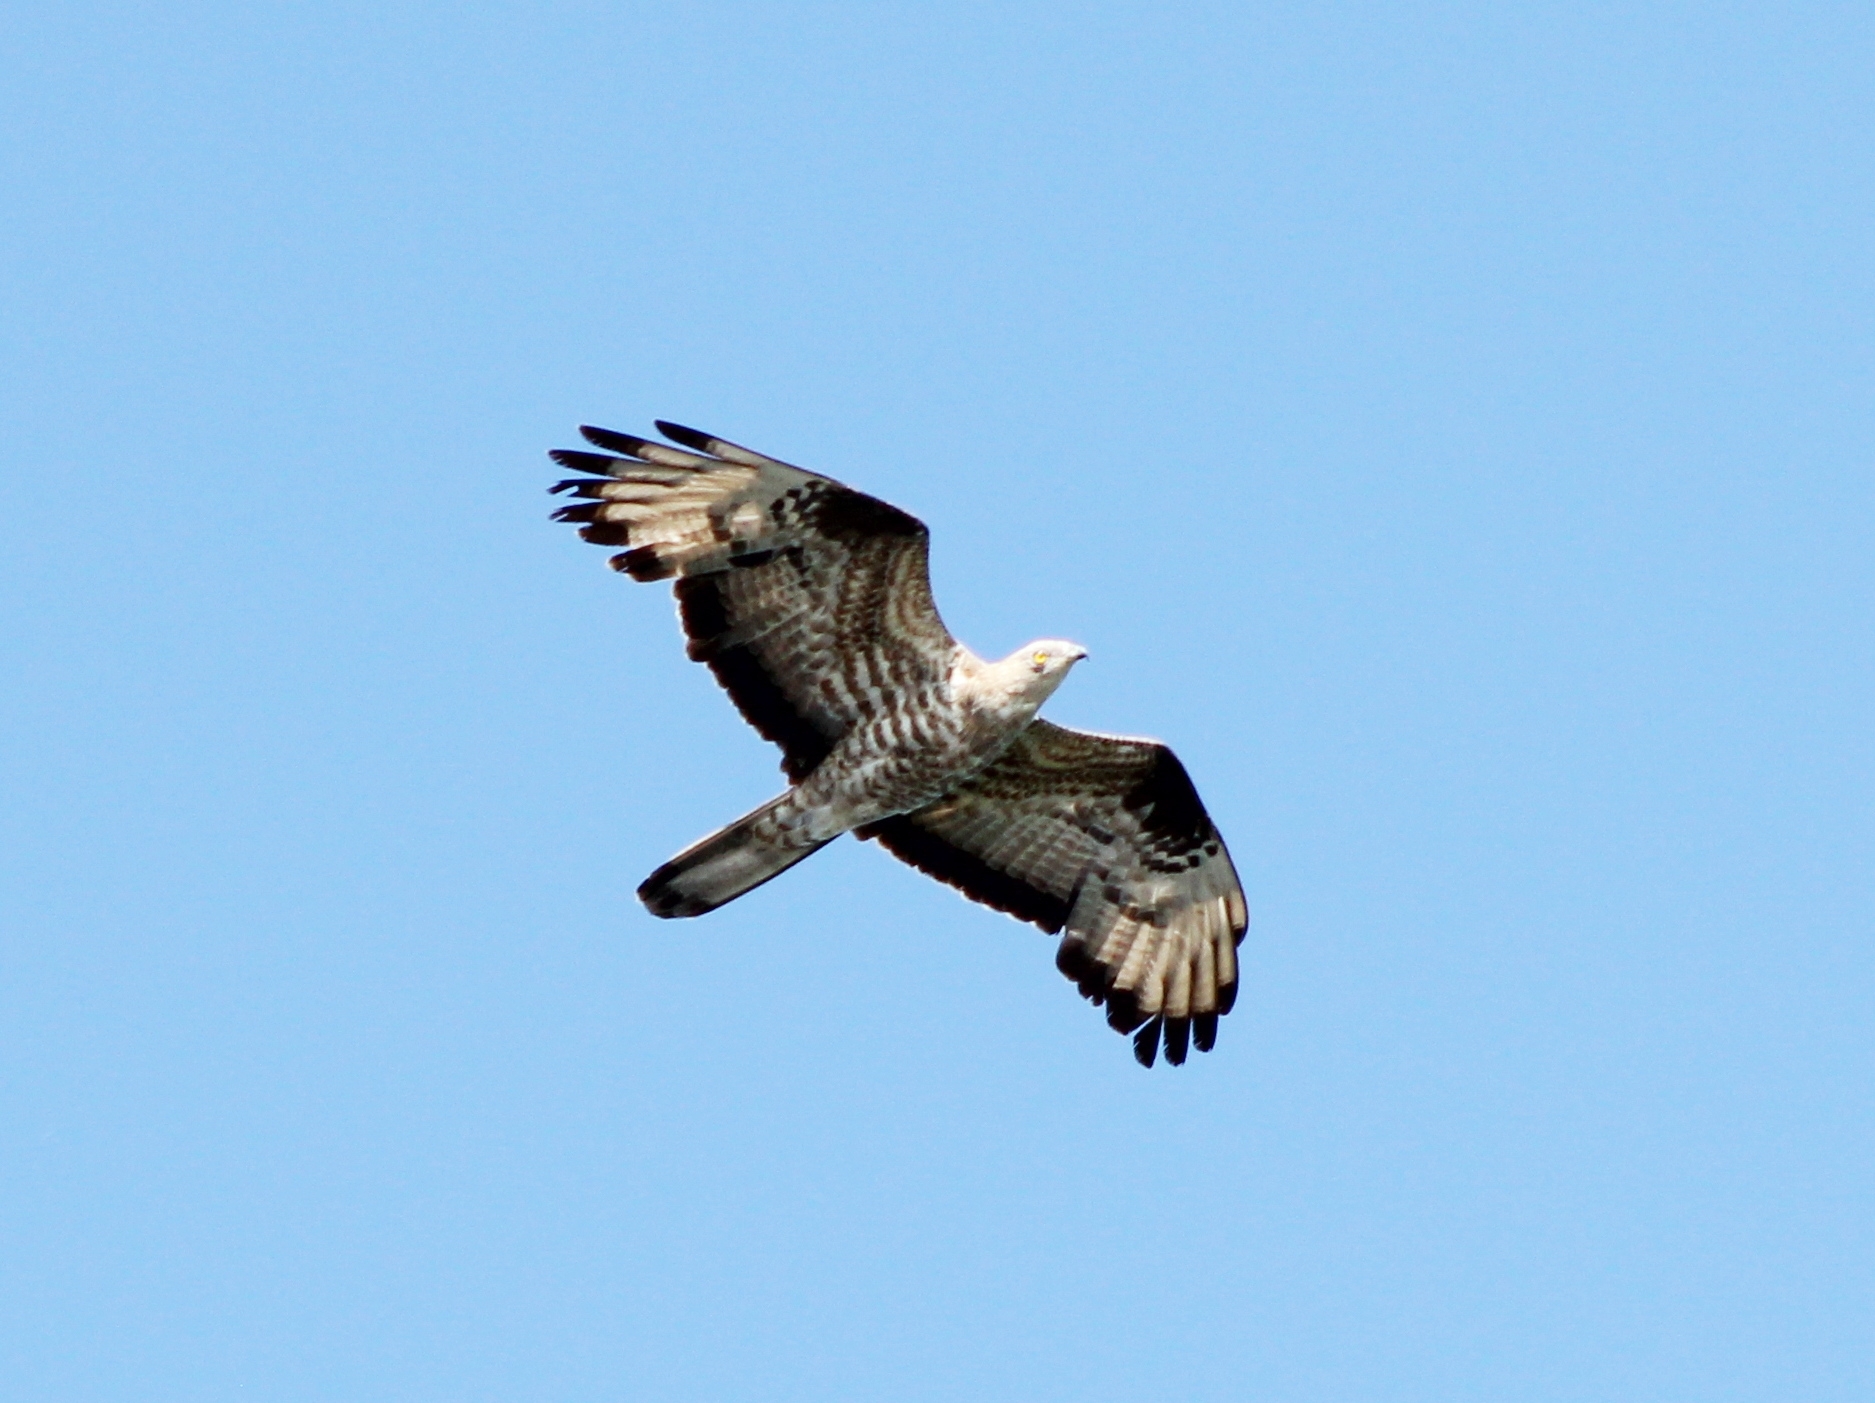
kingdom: Animalia
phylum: Chordata
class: Aves
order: Accipitriformes
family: Accipitridae
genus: Pernis
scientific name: Pernis apivorus
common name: European honey buzzard
